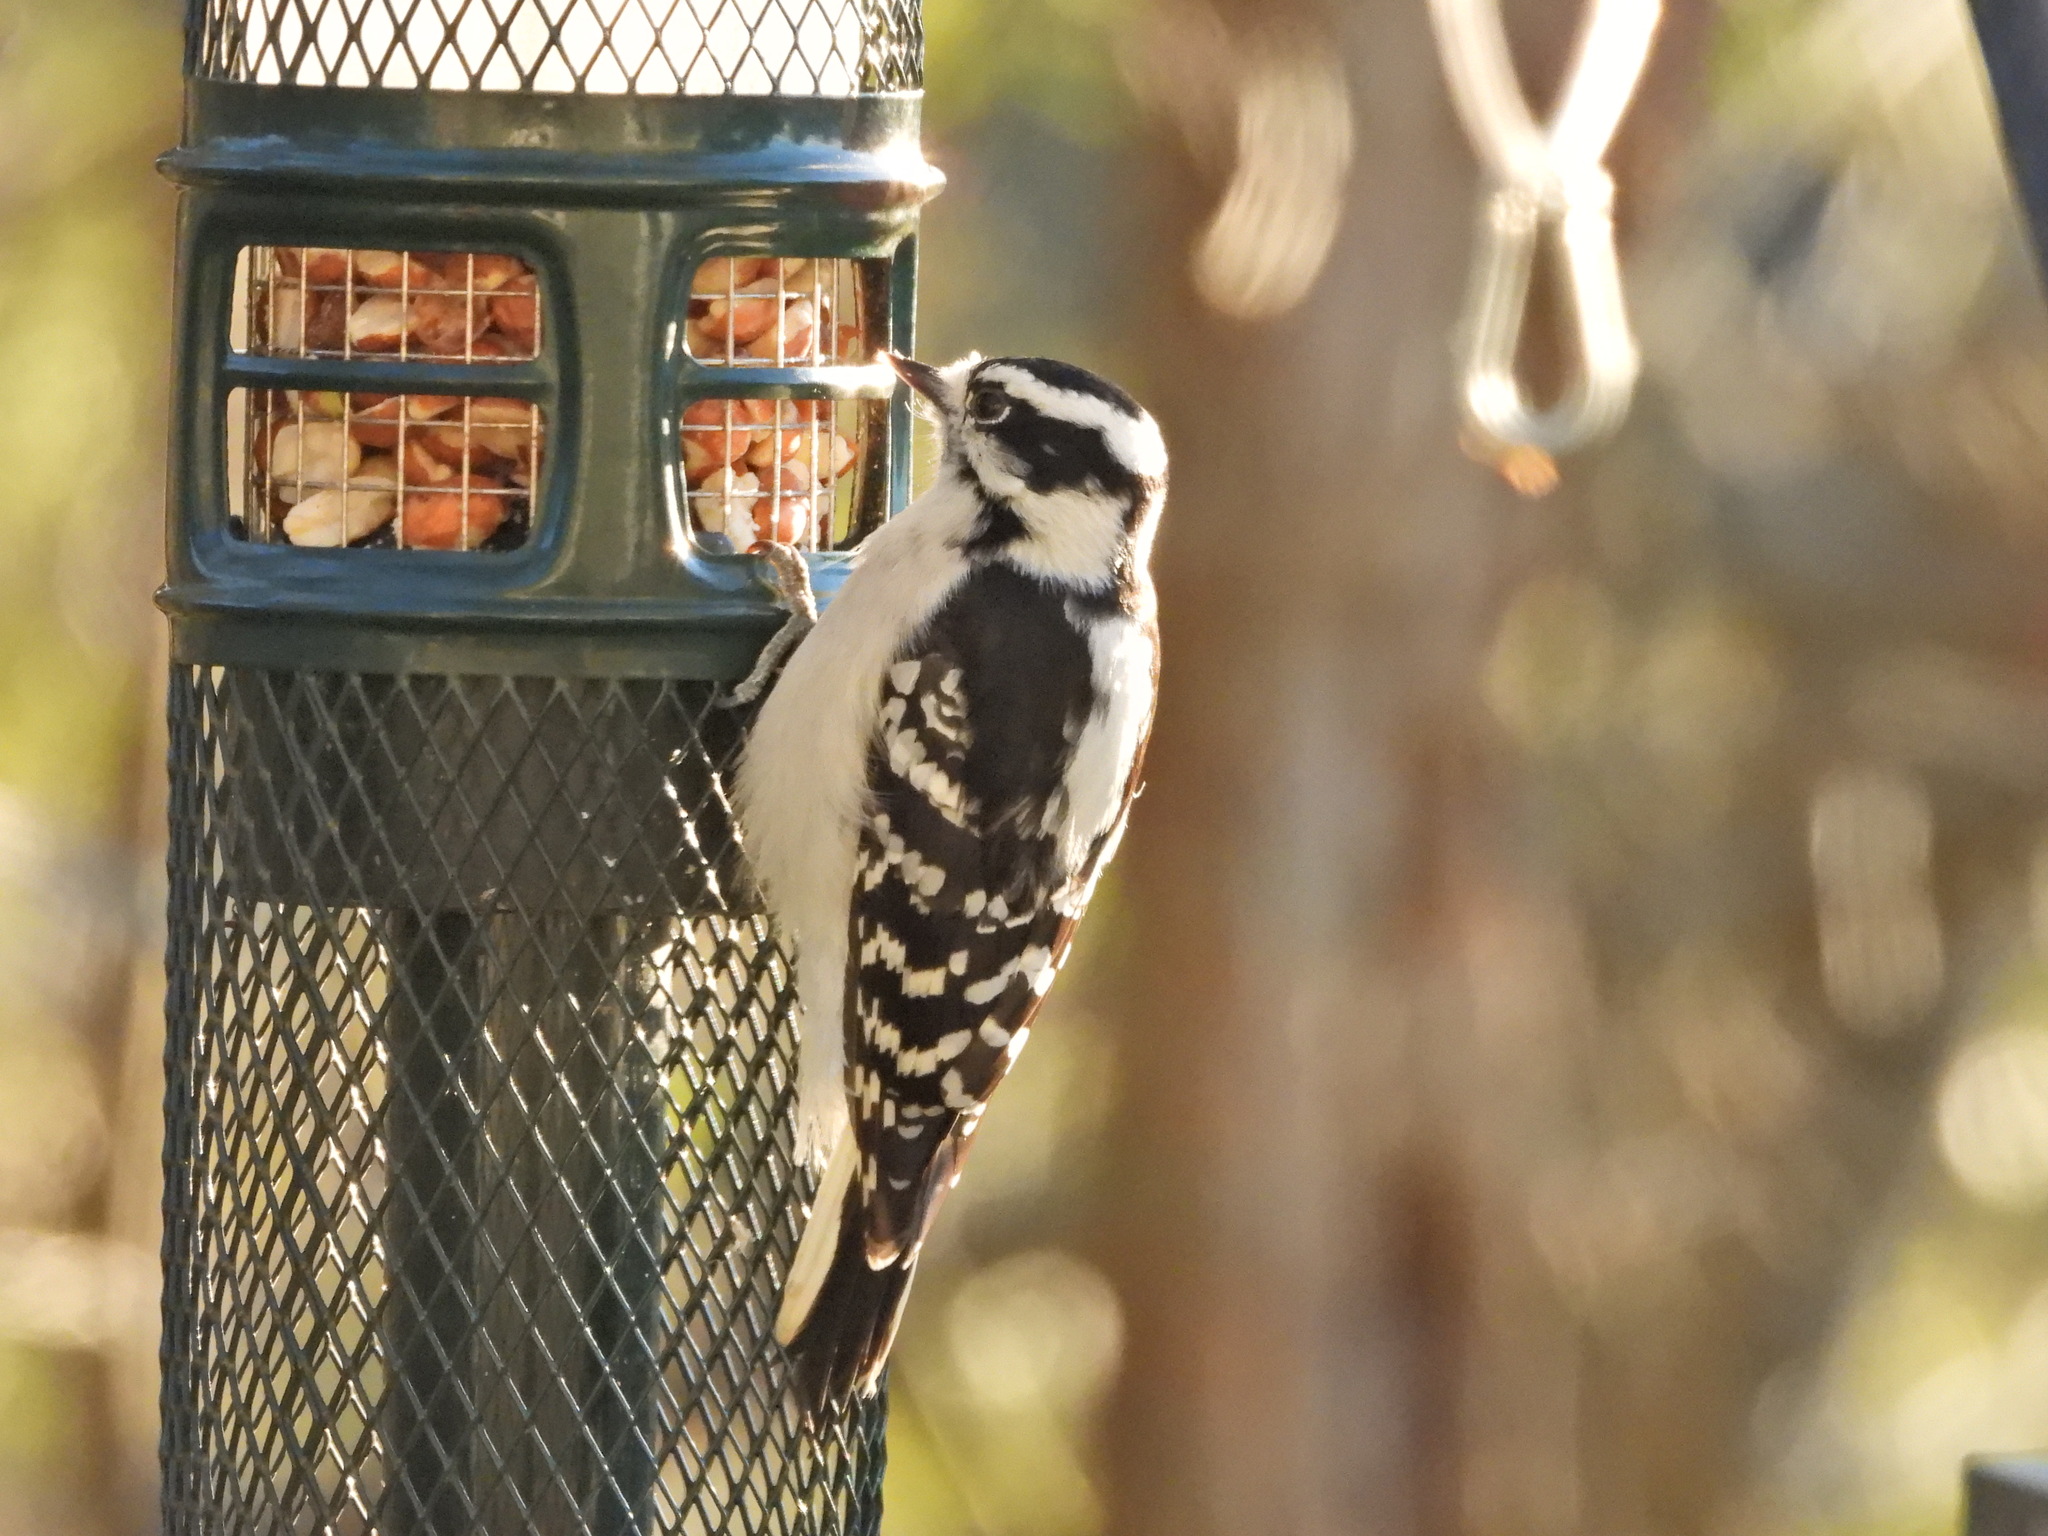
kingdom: Animalia
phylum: Chordata
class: Aves
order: Piciformes
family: Picidae
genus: Dryobates
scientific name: Dryobates pubescens
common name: Downy woodpecker
